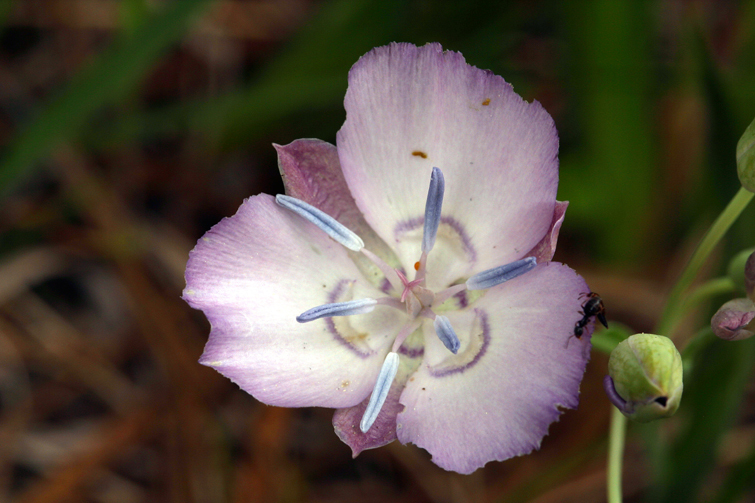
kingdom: Plantae
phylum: Tracheophyta
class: Liliopsida
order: Liliales
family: Liliaceae
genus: Calochortus
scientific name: Calochortus nudus
